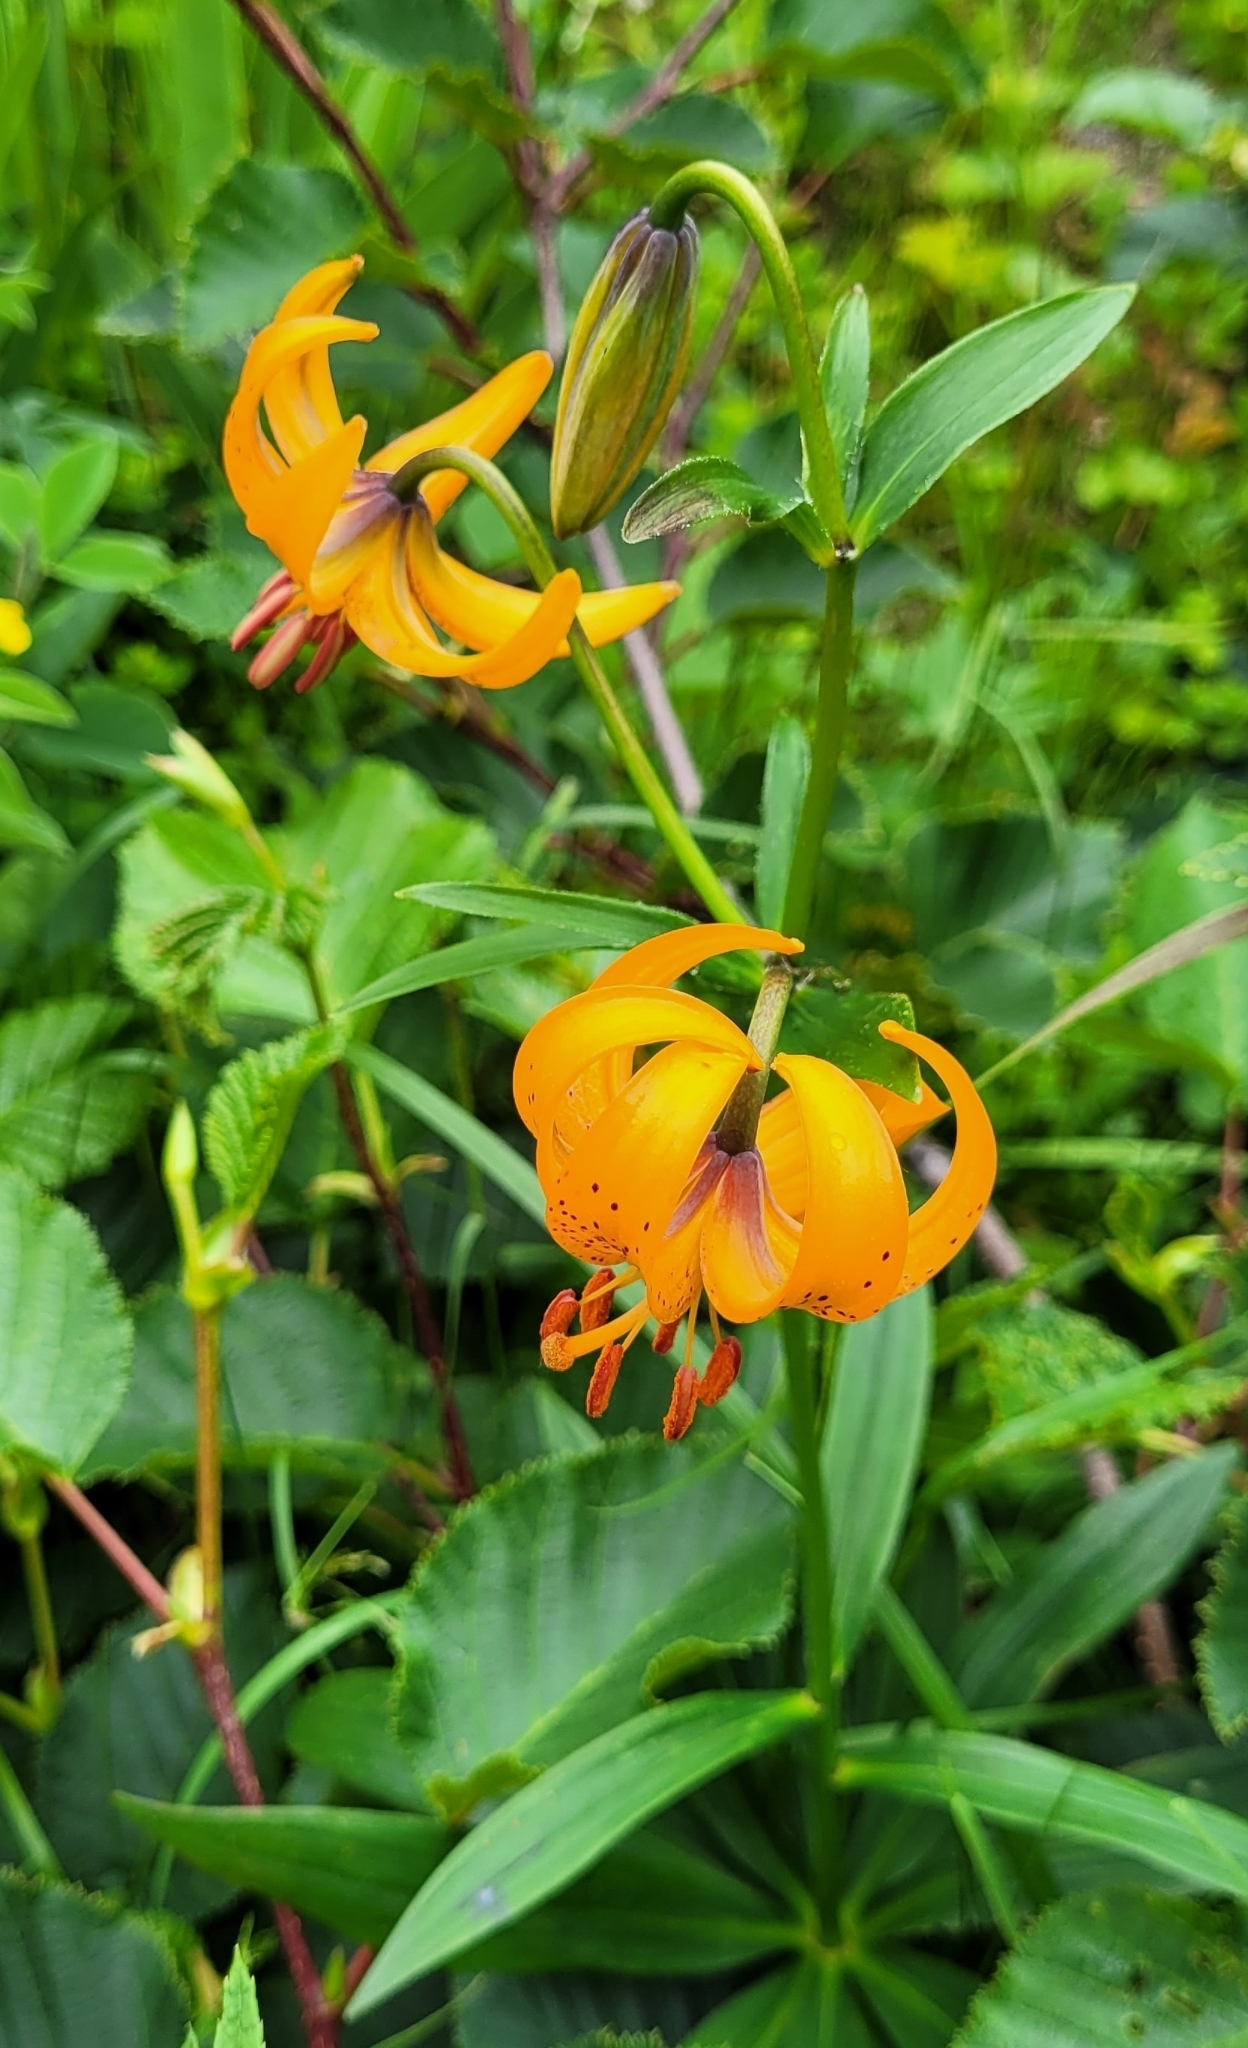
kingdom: Plantae
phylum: Tracheophyta
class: Liliopsida
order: Liliales
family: Liliaceae
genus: Lilium
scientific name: Lilium debile
